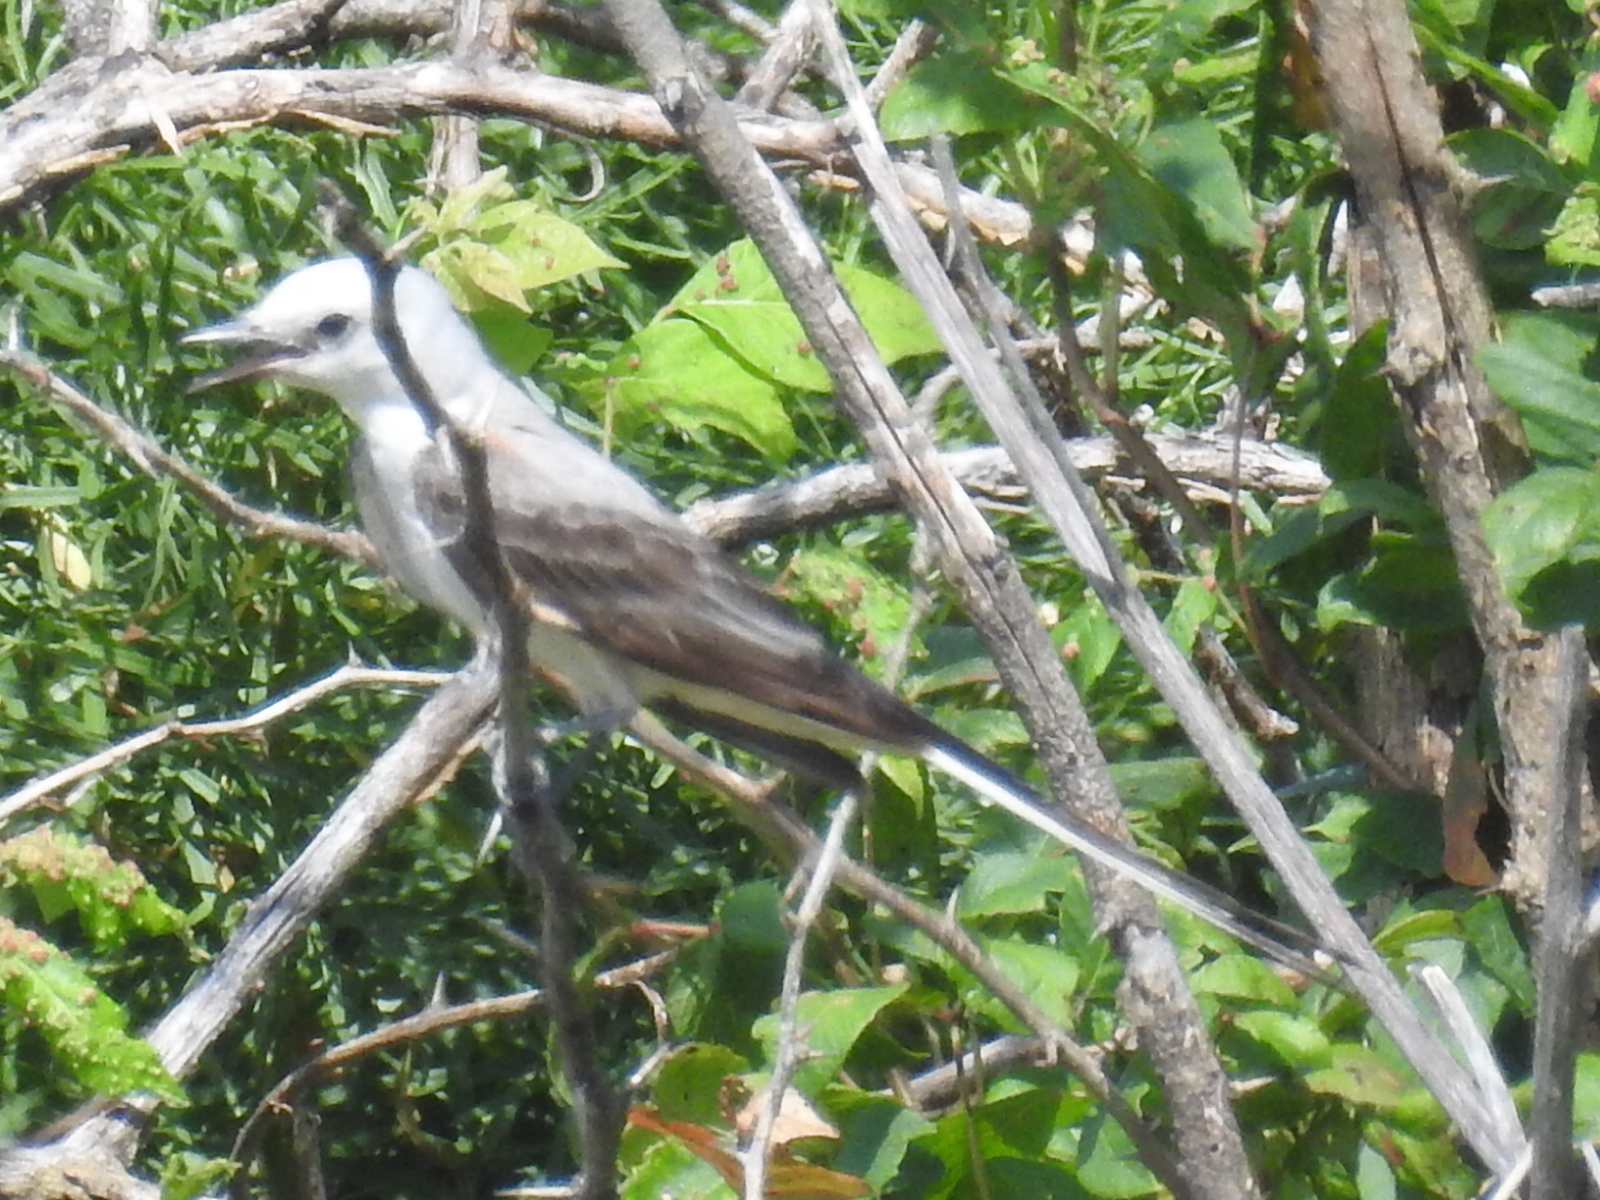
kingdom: Animalia
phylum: Chordata
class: Aves
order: Passeriformes
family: Tyrannidae
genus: Tyrannus
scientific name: Tyrannus forficatus
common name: Scissor-tailed flycatcher
